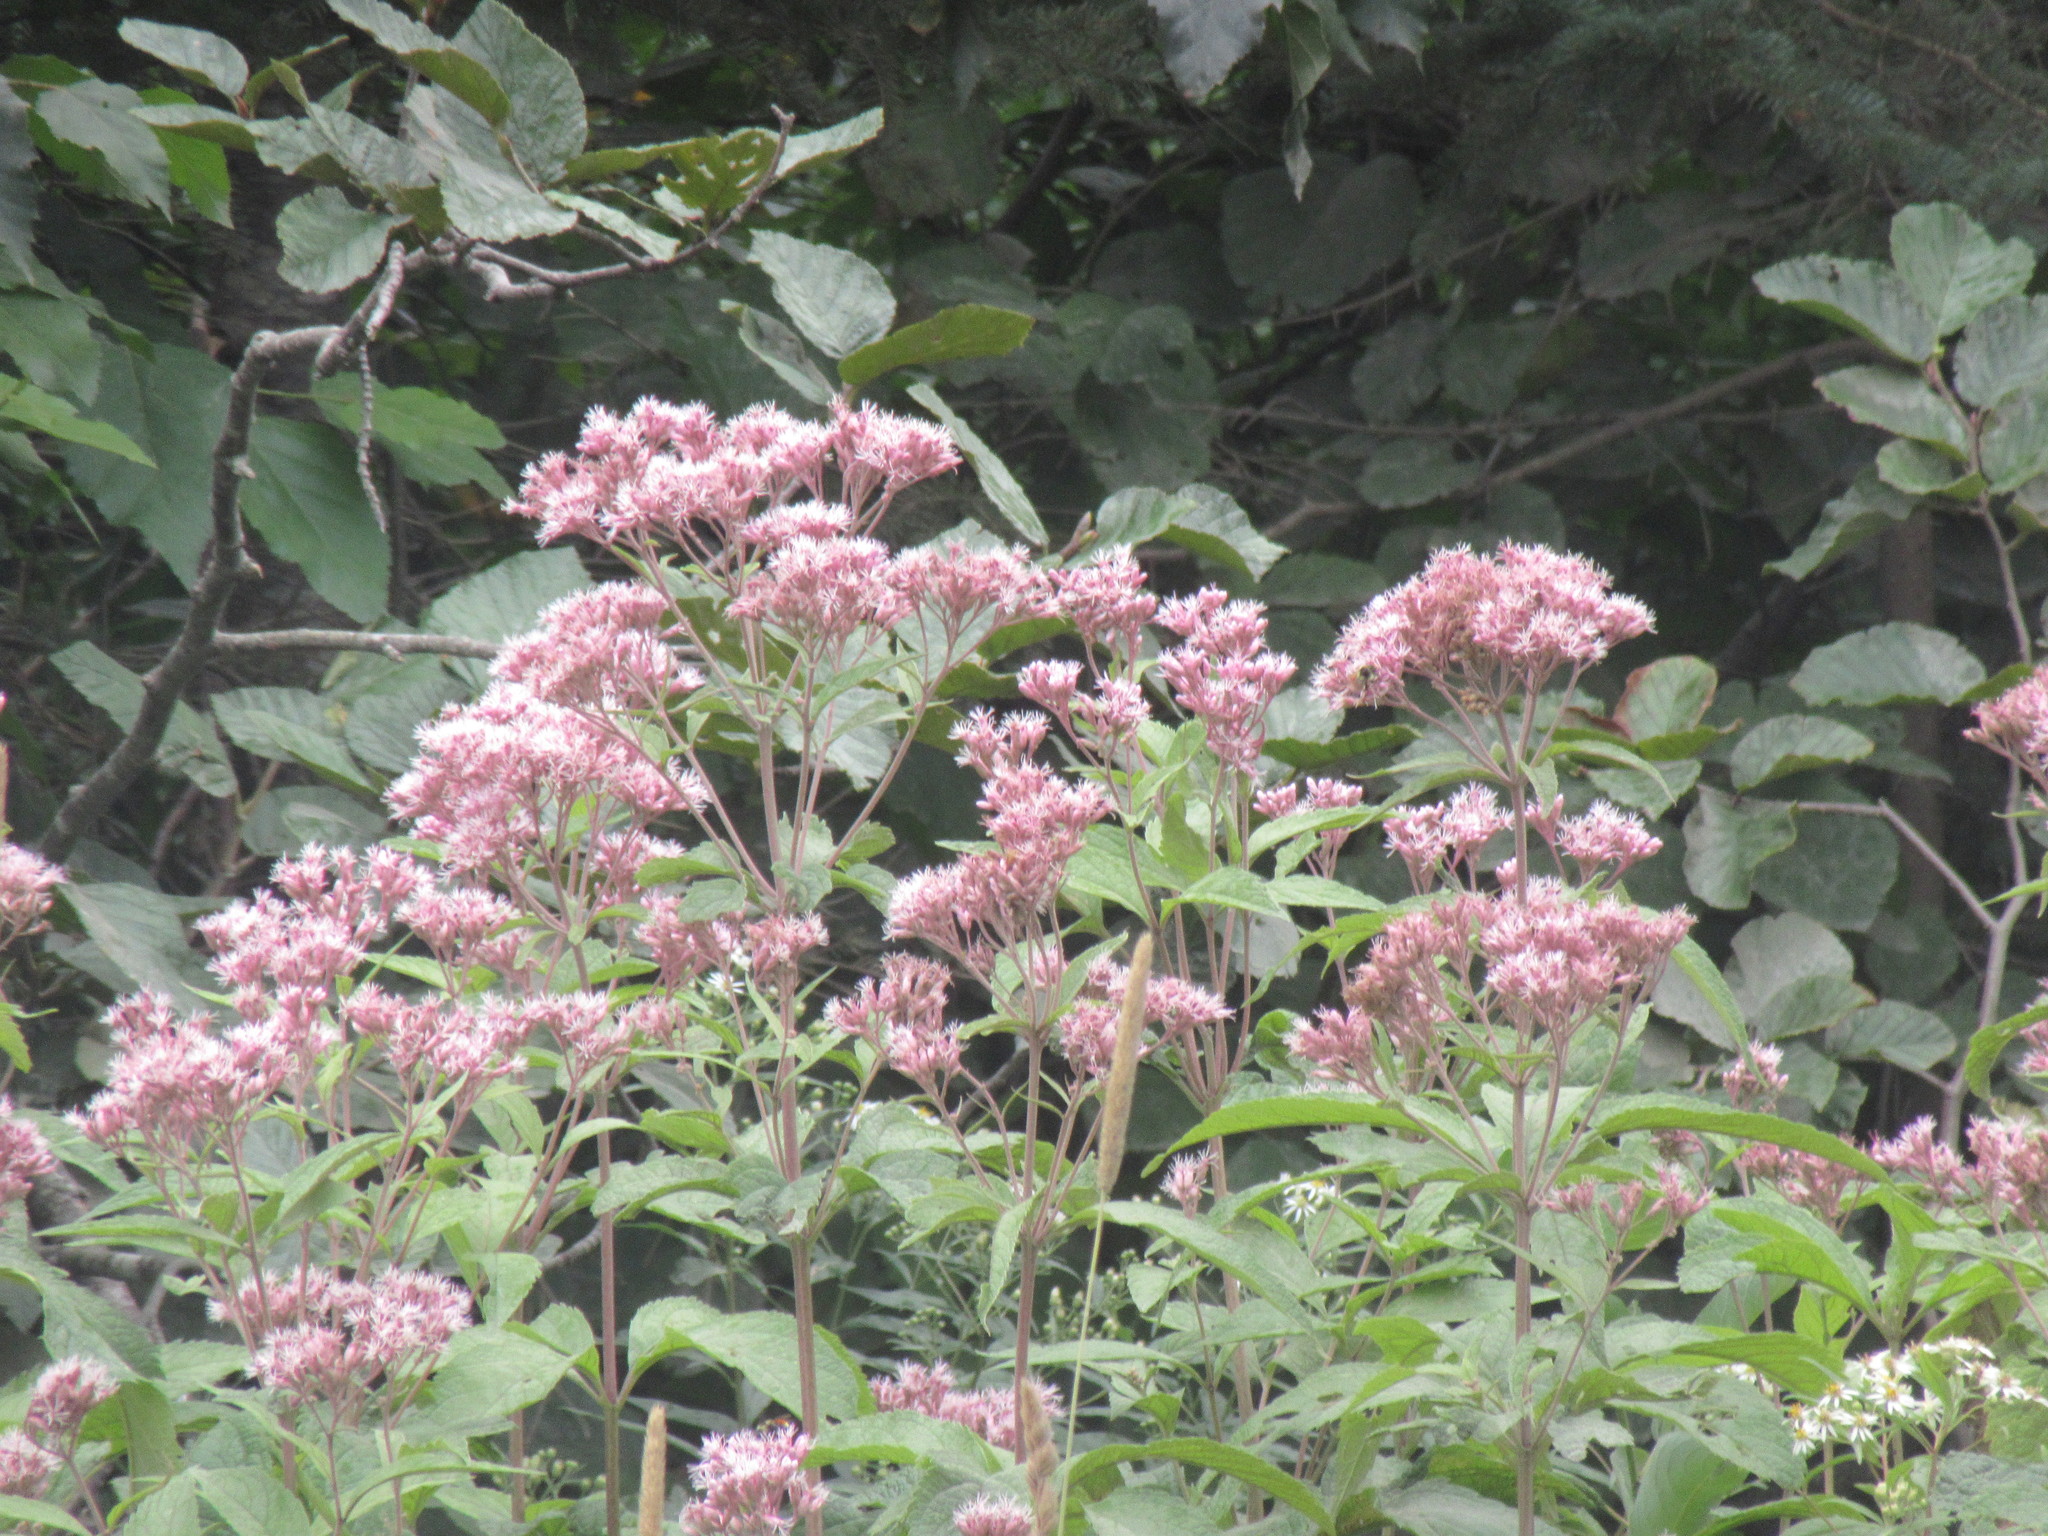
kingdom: Plantae
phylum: Tracheophyta
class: Magnoliopsida
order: Asterales
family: Asteraceae
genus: Eutrochium
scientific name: Eutrochium maculatum
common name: Spotted joe pye weed
